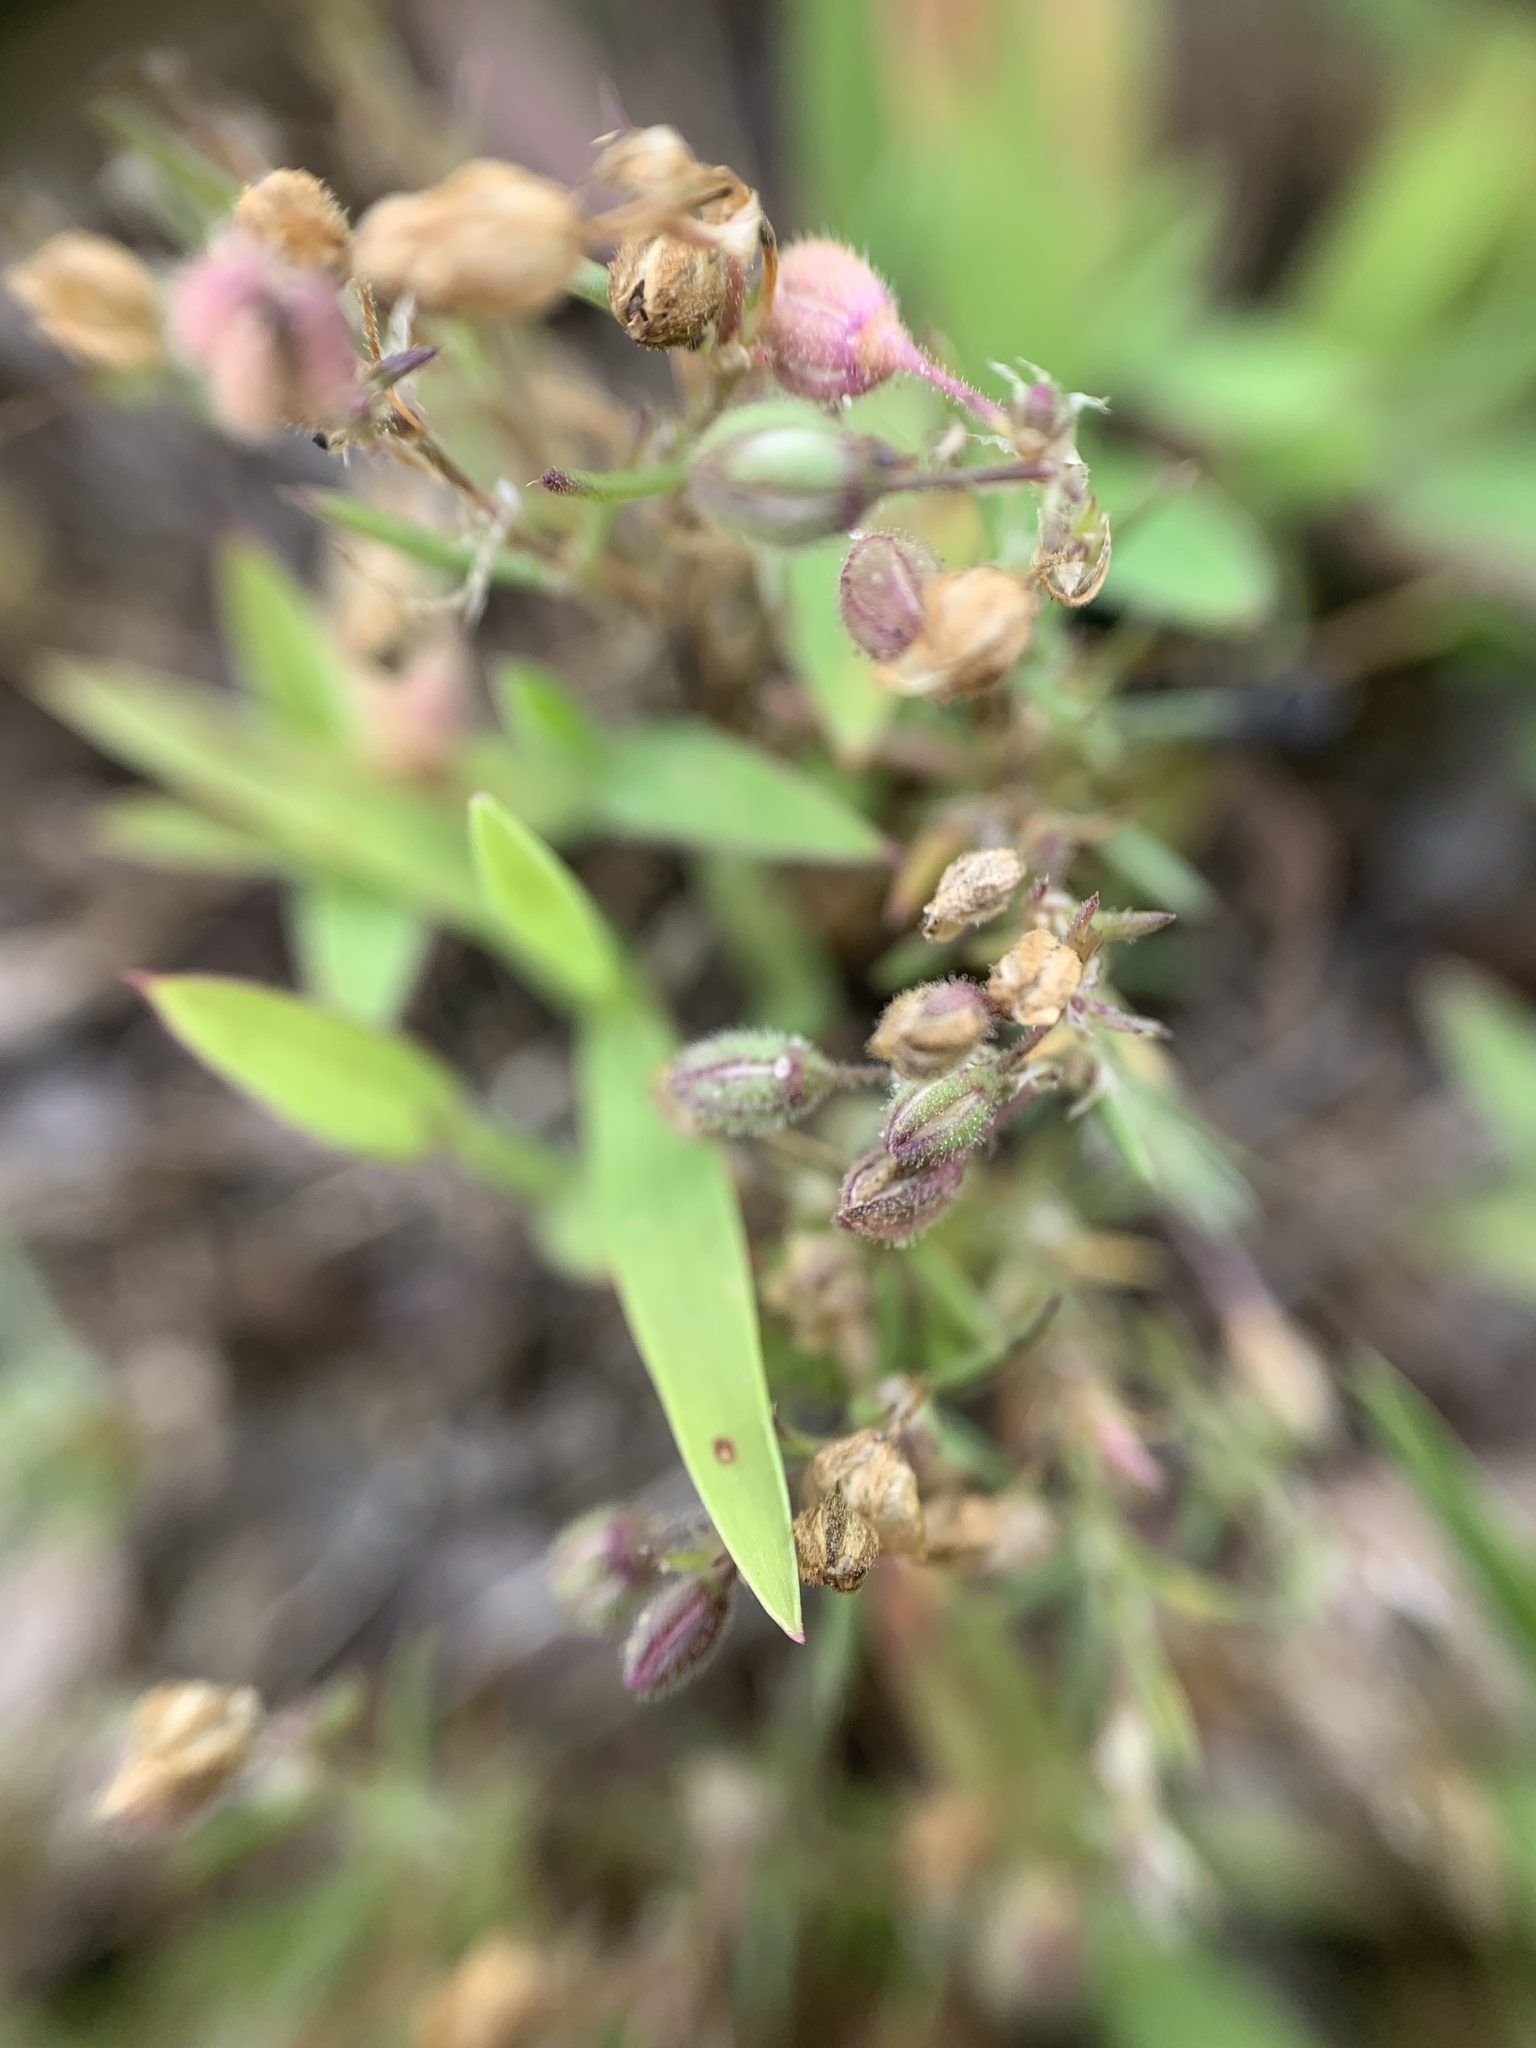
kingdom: Plantae
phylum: Tracheophyta
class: Magnoliopsida
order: Caryophyllales
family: Caryophyllaceae
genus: Spergularia
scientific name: Spergularia rubra
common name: Red sand-spurrey
